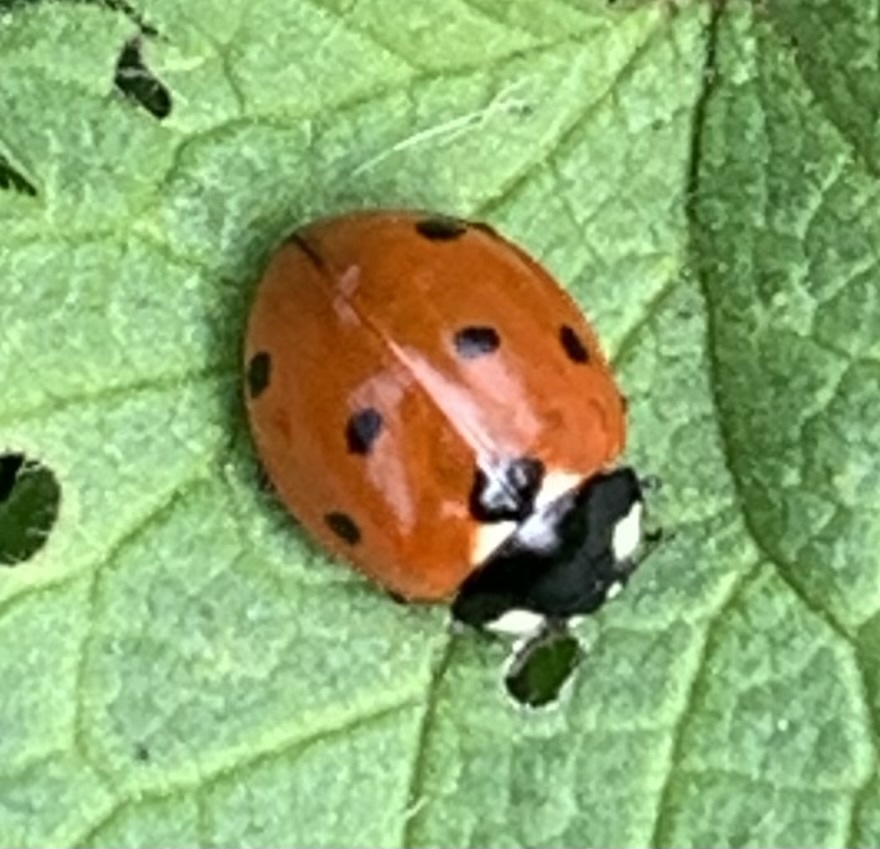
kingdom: Animalia
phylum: Arthropoda
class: Insecta
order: Coleoptera
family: Coccinellidae
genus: Coccinella
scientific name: Coccinella septempunctata
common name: Sevenspotted lady beetle
